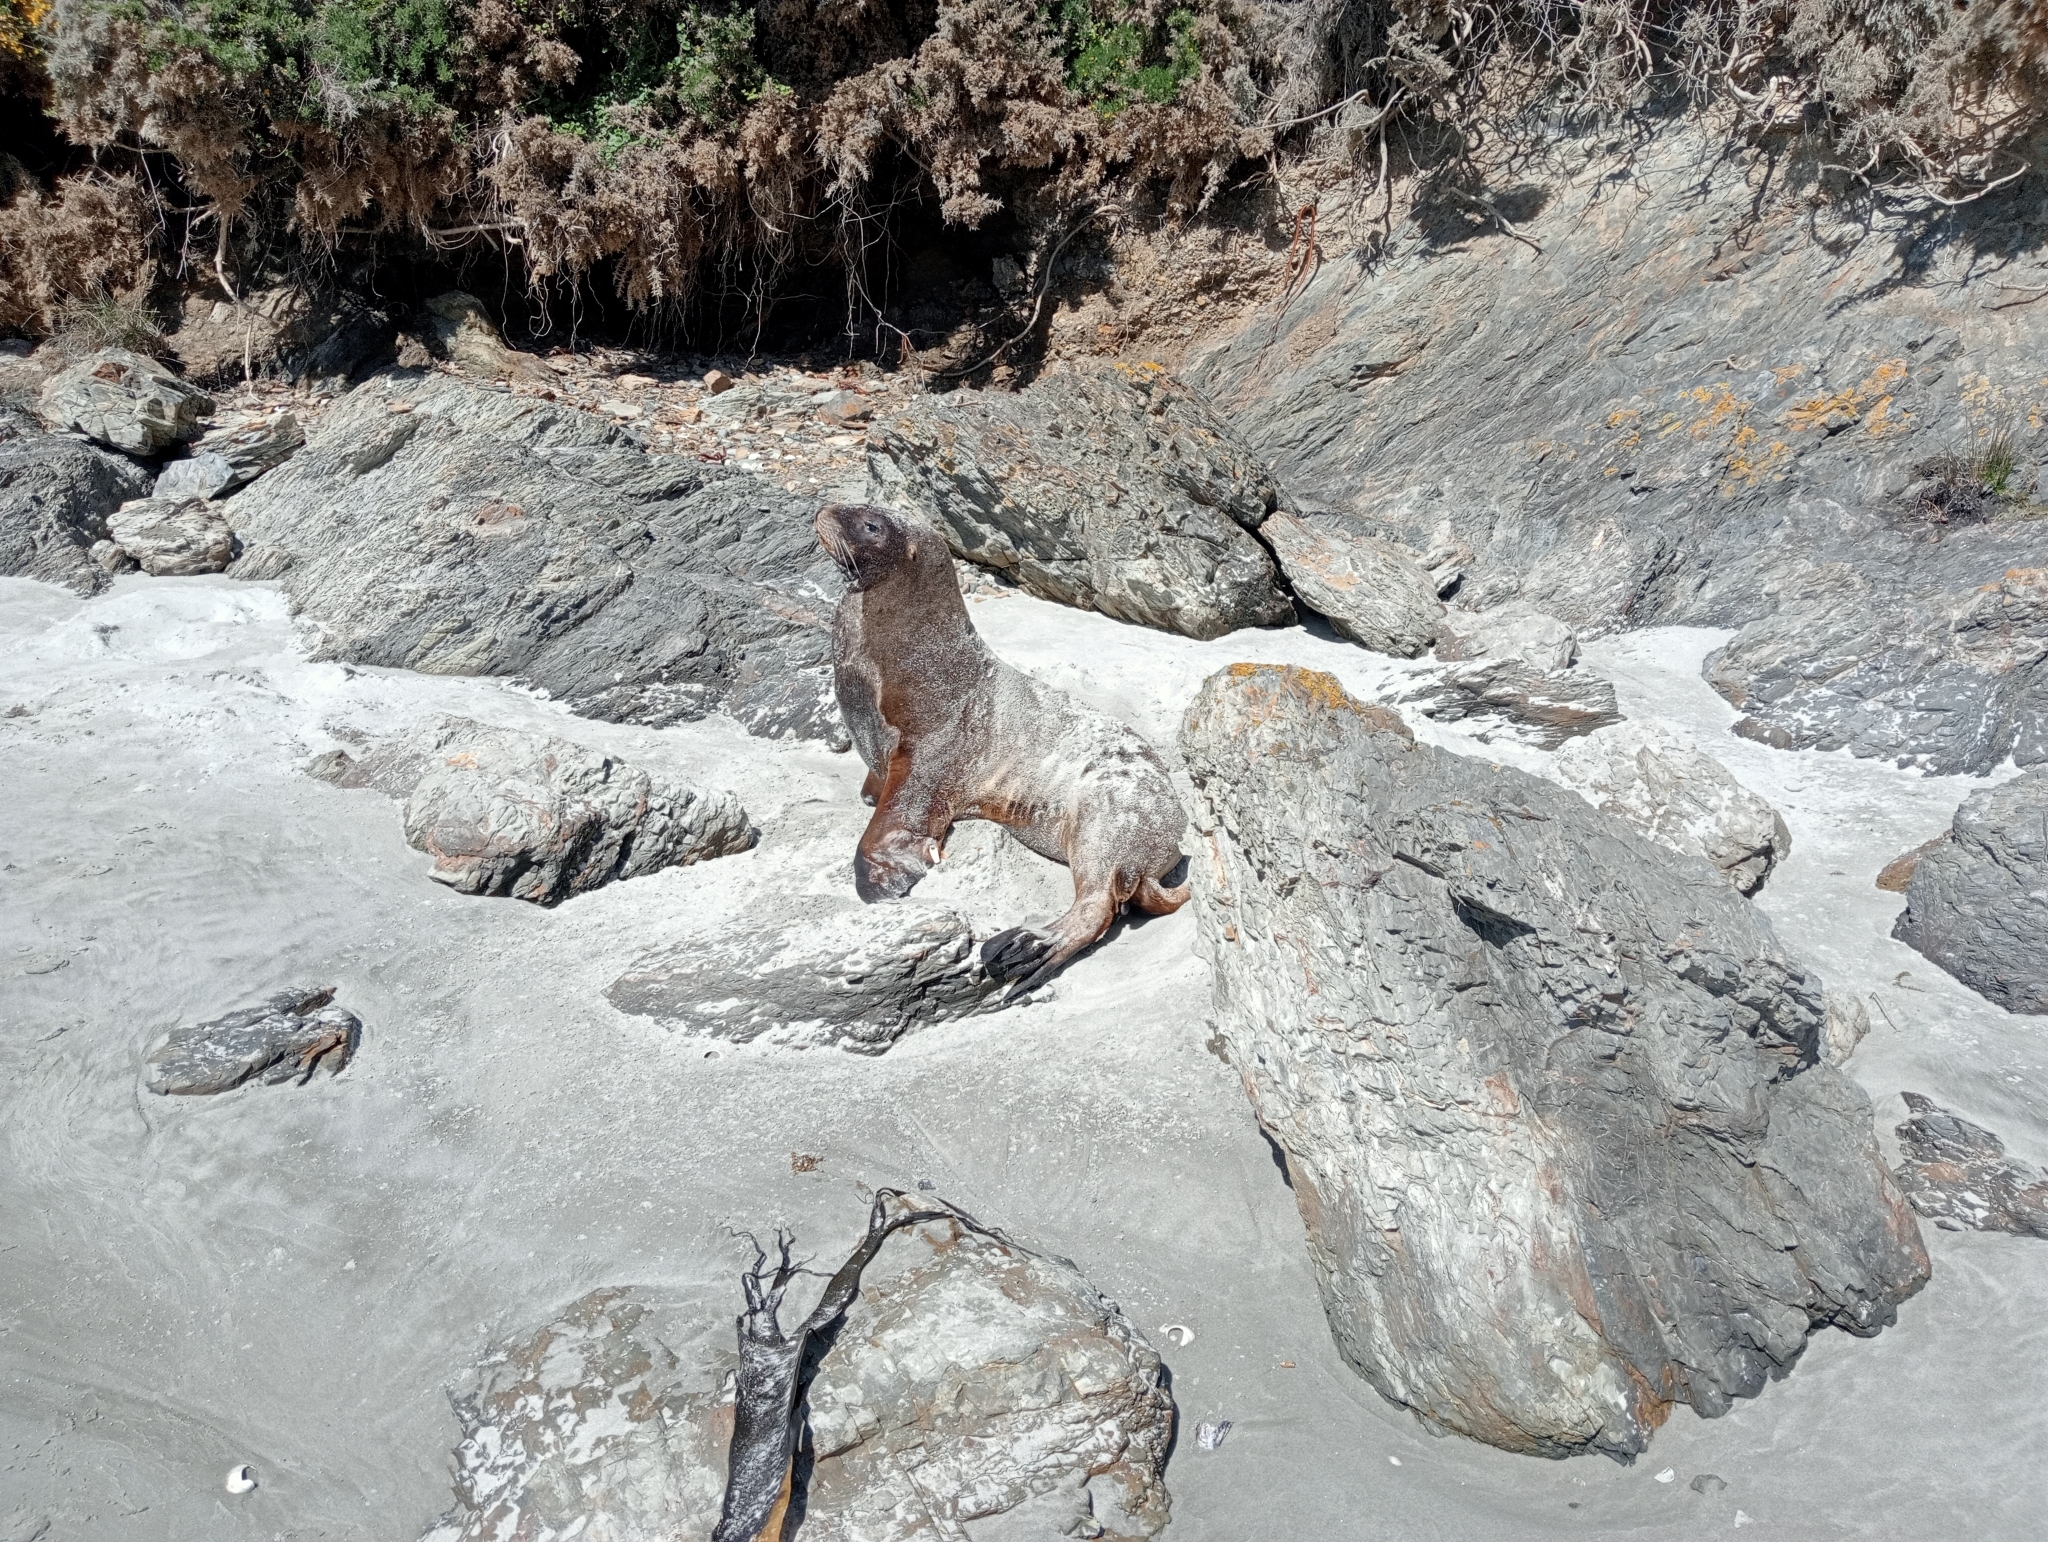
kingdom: Animalia
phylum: Chordata
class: Mammalia
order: Carnivora
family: Otariidae
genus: Phocarctos
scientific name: Phocarctos hookeri
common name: New zealand sea lion
